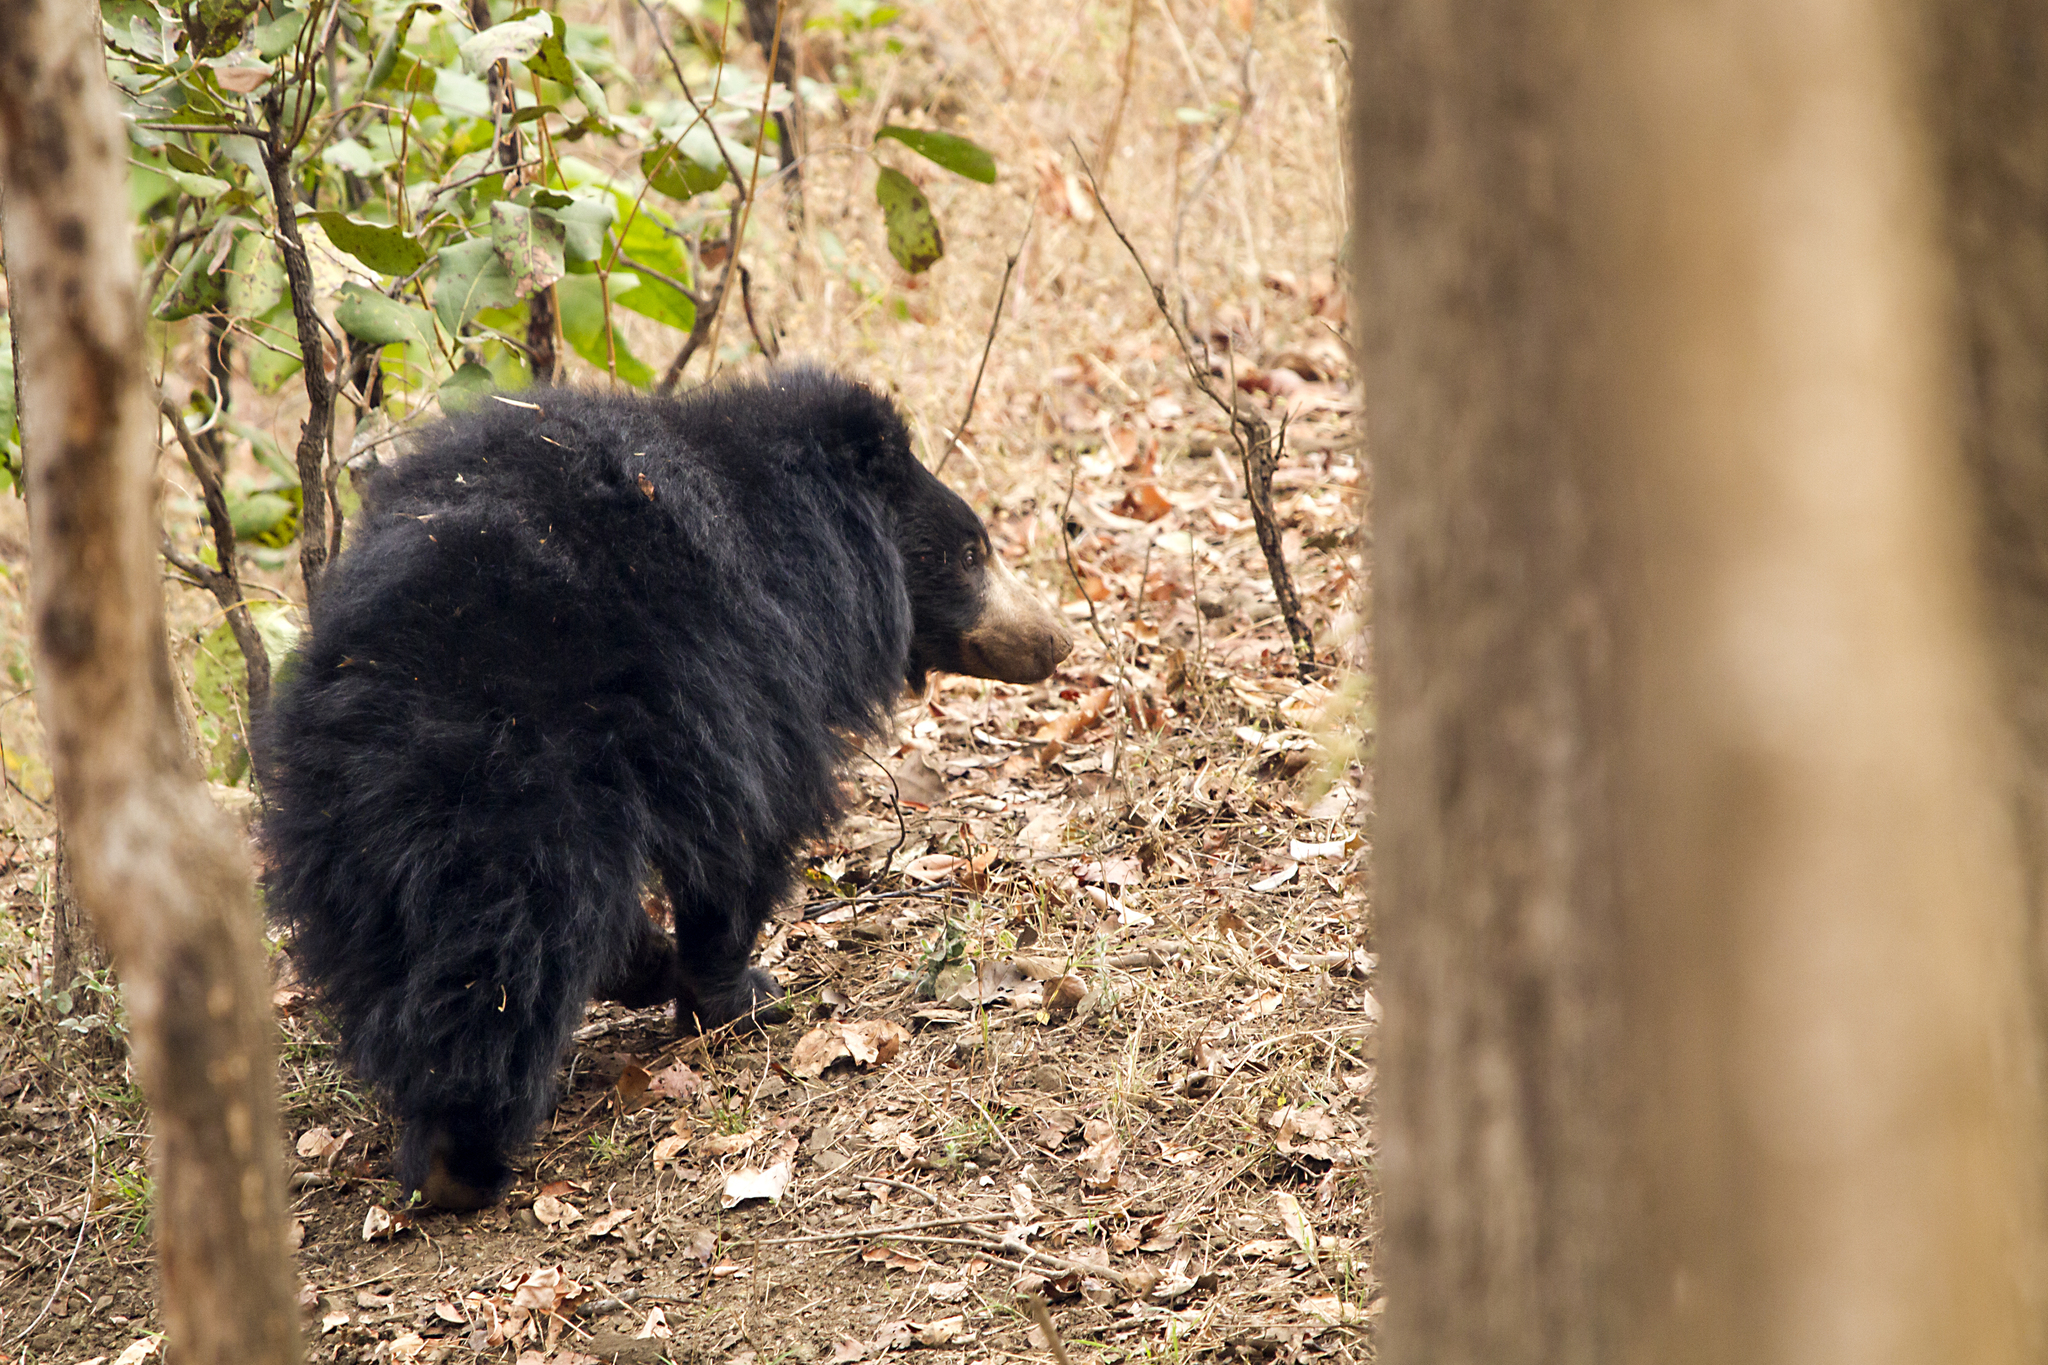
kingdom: Animalia
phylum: Chordata
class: Mammalia
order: Carnivora
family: Ursidae
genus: Melursus
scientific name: Melursus ursinus
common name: Sloth bear
